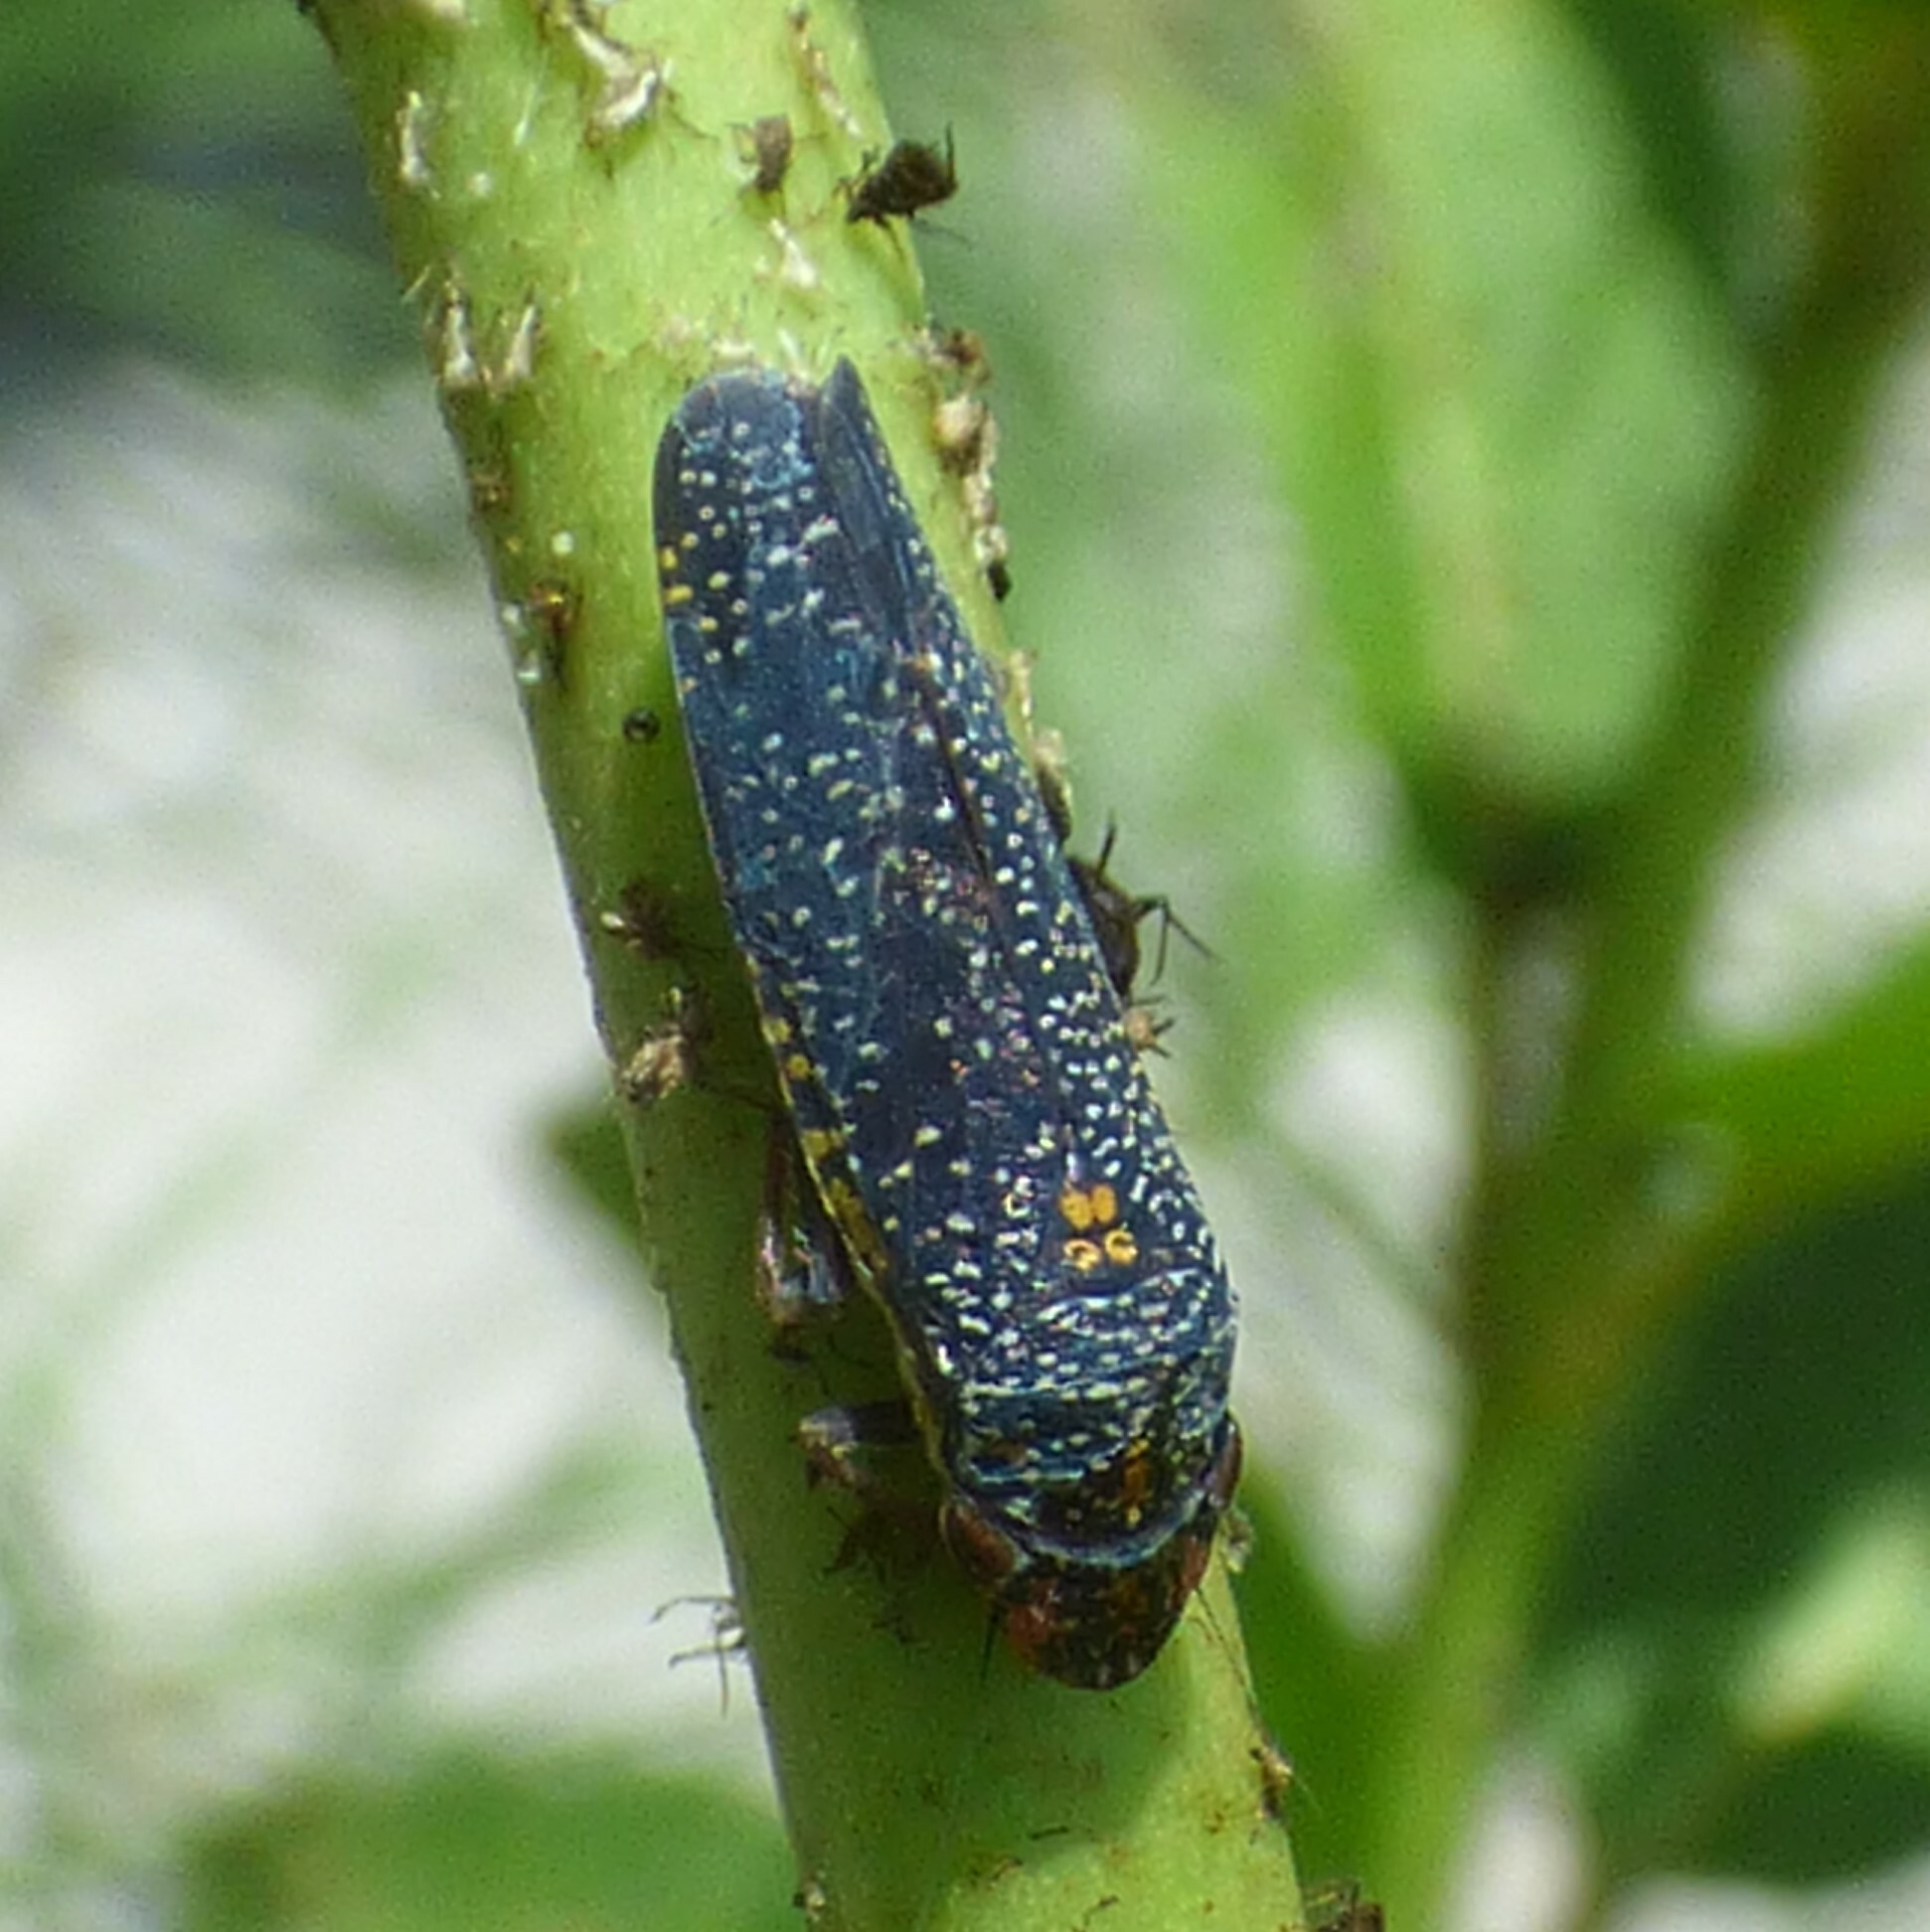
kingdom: Animalia
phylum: Arthropoda
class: Insecta
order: Hemiptera
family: Cicadellidae
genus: Paraulacizes
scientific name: Paraulacizes irrorata
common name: Speckled sharpshooter
